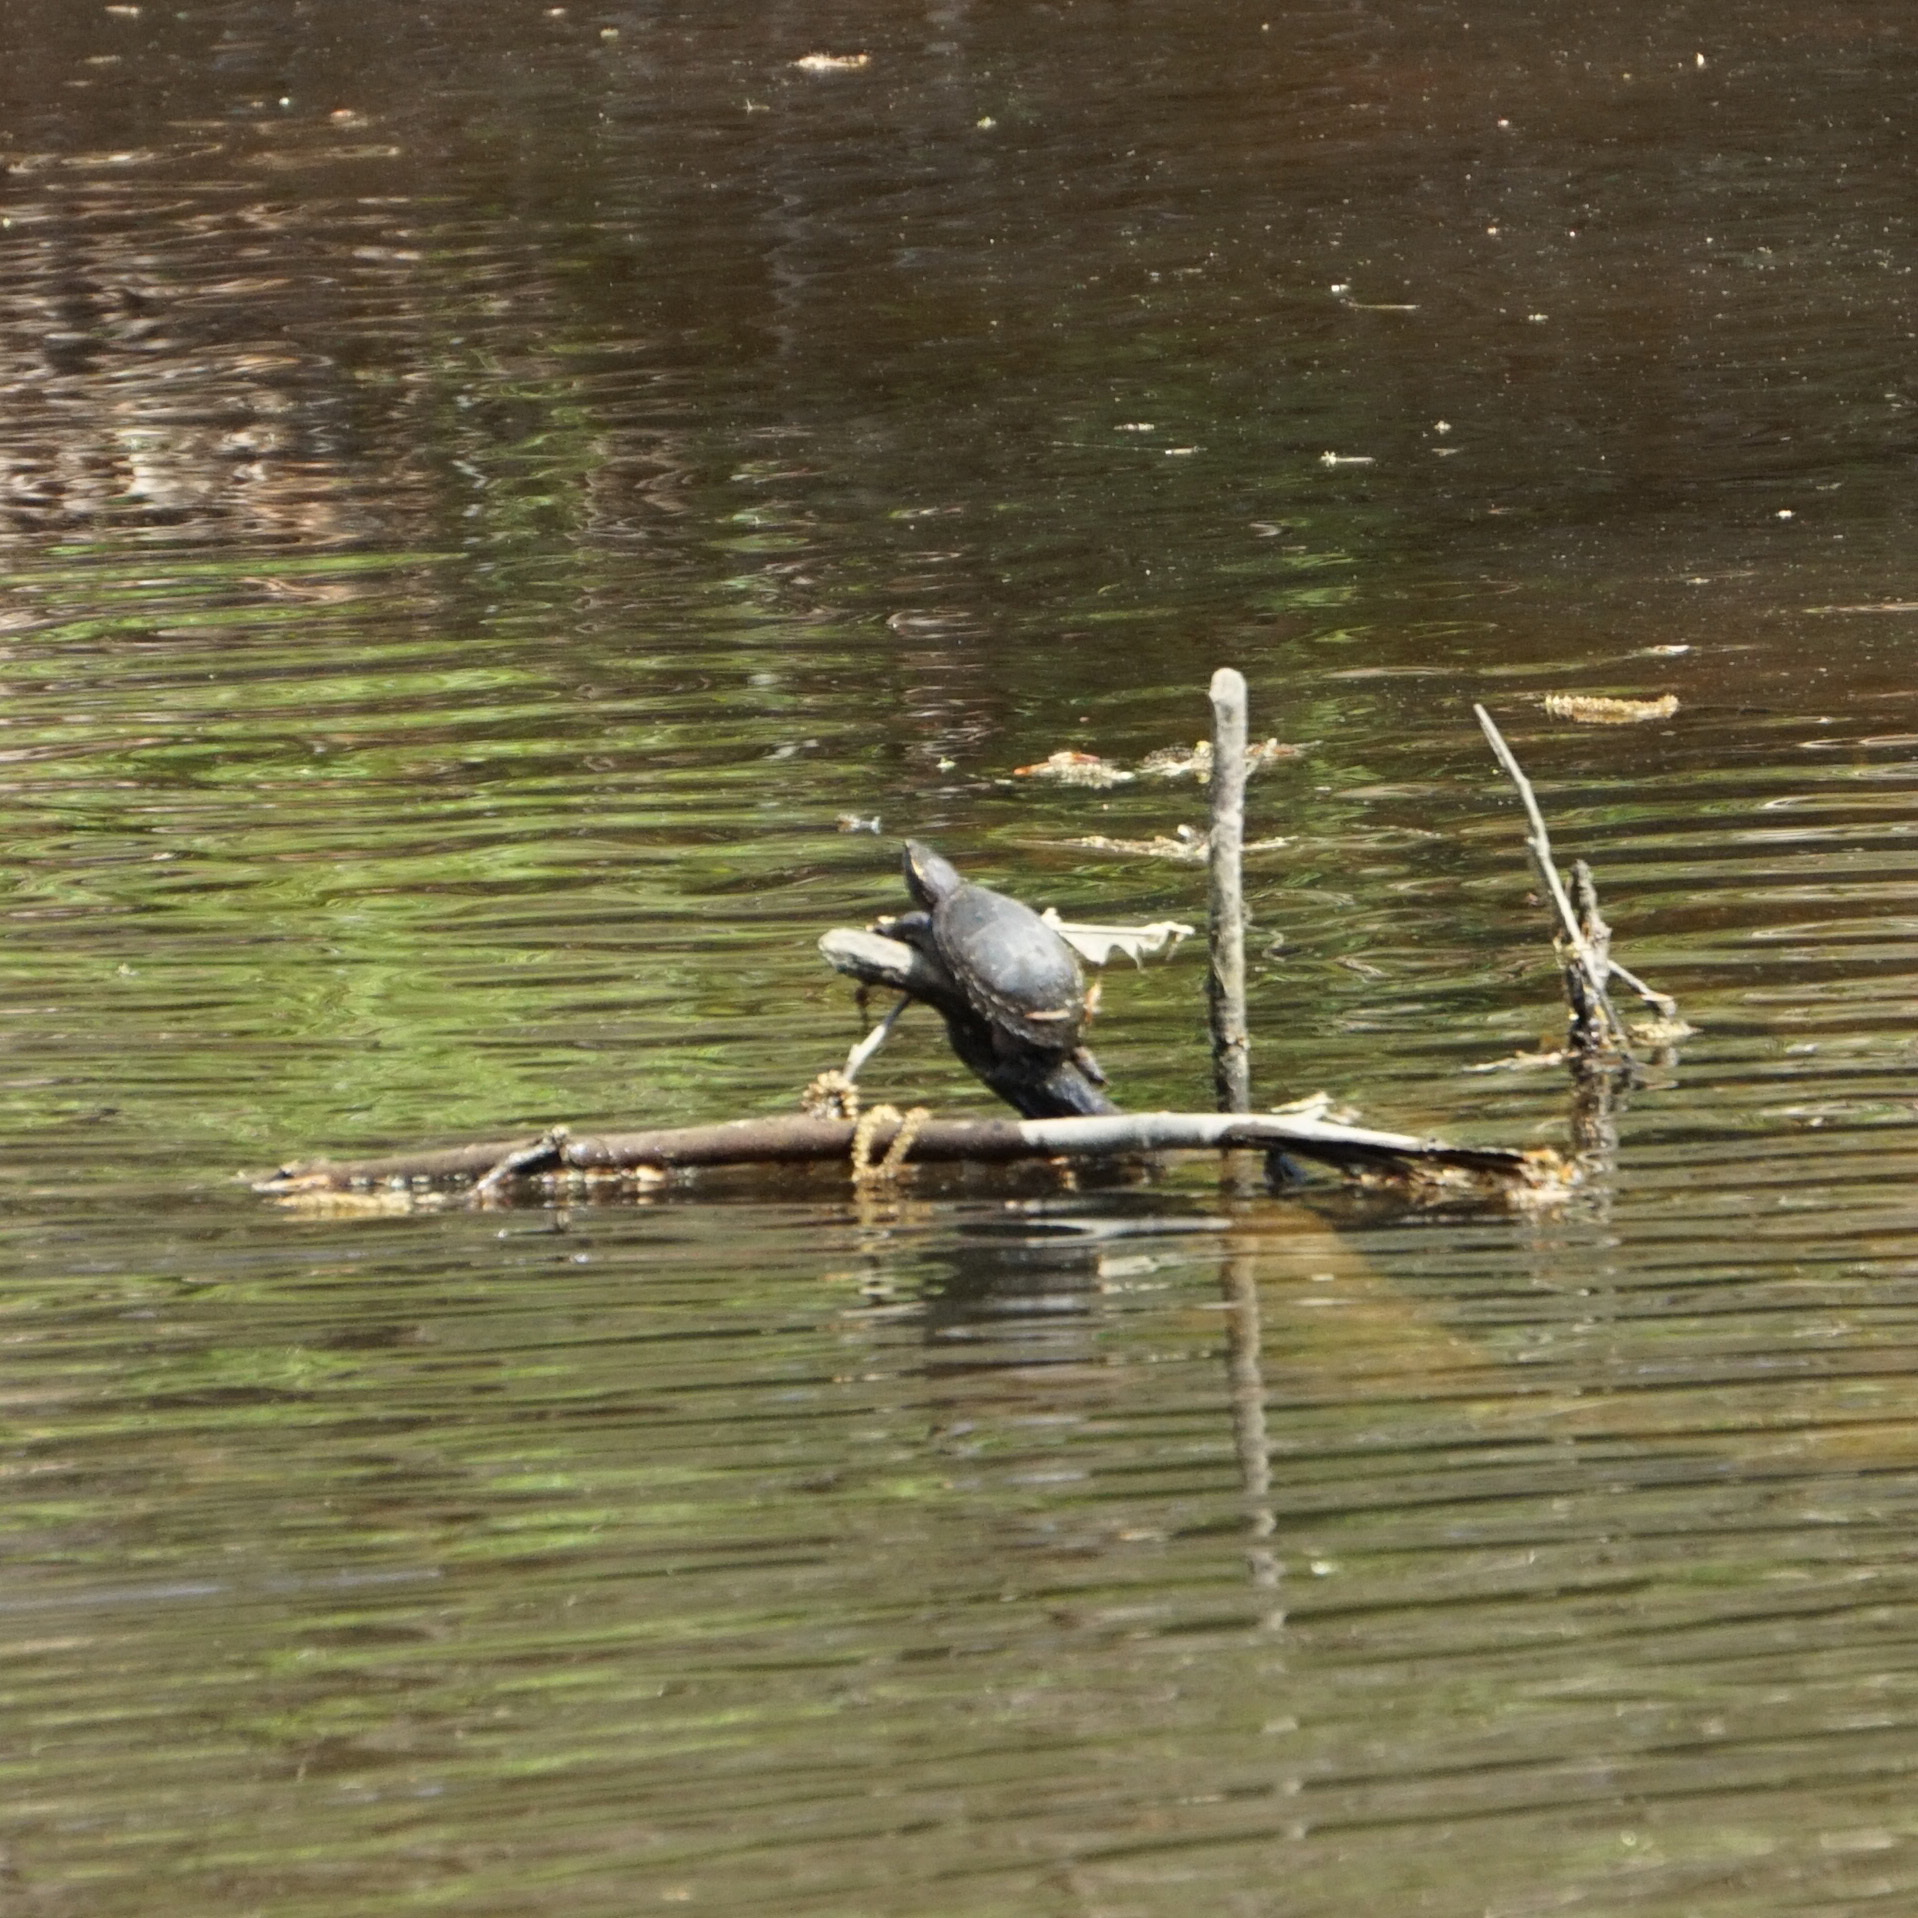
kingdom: Animalia
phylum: Chordata
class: Testudines
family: Kinosternidae
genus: Sternotherus
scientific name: Sternotherus odoratus
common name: Common musk turtle
